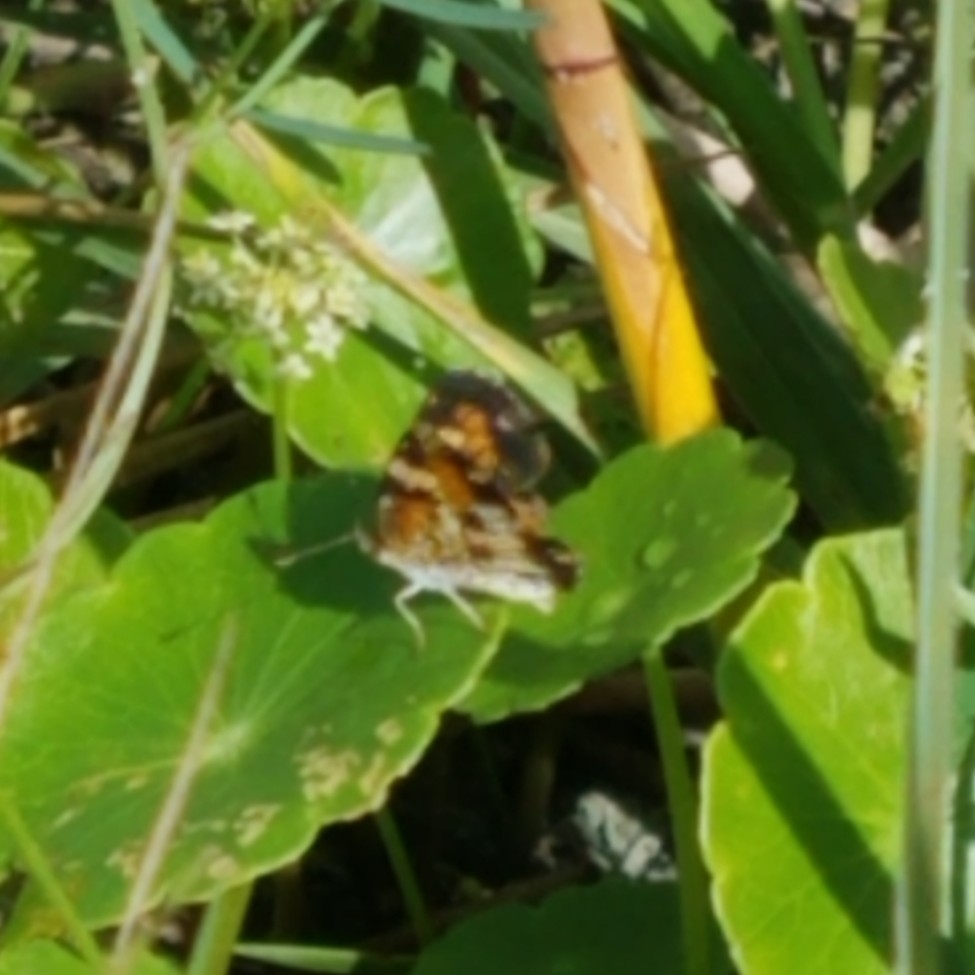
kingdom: Animalia
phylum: Arthropoda
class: Insecta
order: Lepidoptera
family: Nymphalidae
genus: Phyciodes
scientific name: Phyciodes phaon
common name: Phaon crescent
